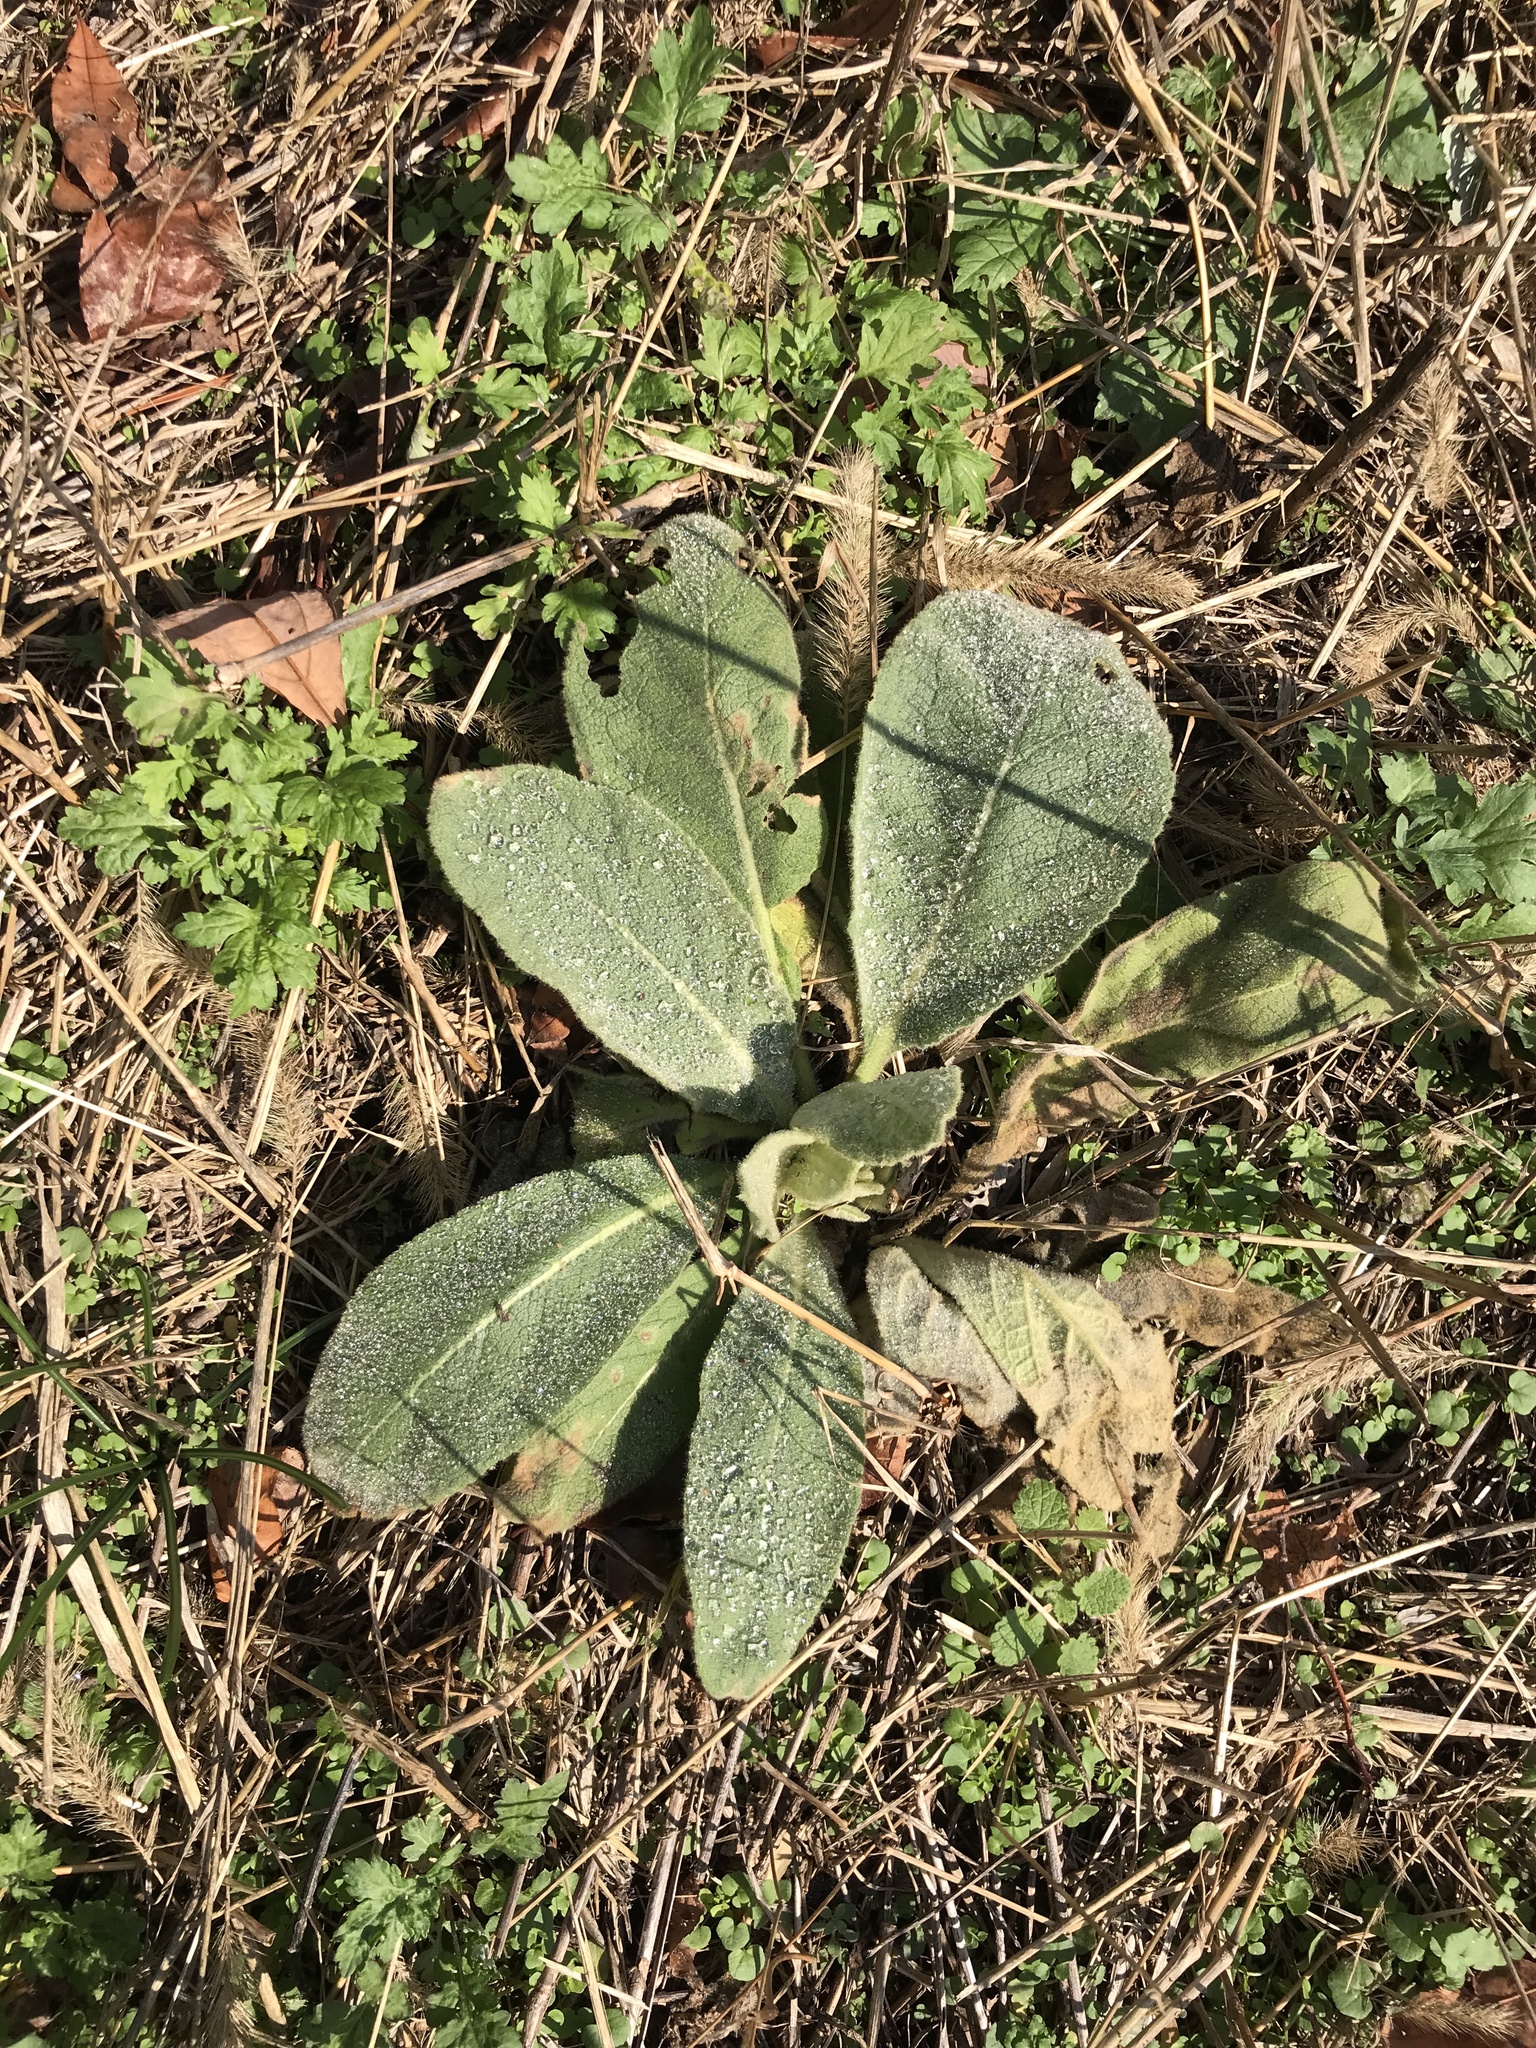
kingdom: Plantae
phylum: Tracheophyta
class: Magnoliopsida
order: Lamiales
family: Scrophulariaceae
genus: Verbascum
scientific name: Verbascum thapsus
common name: Common mullein
